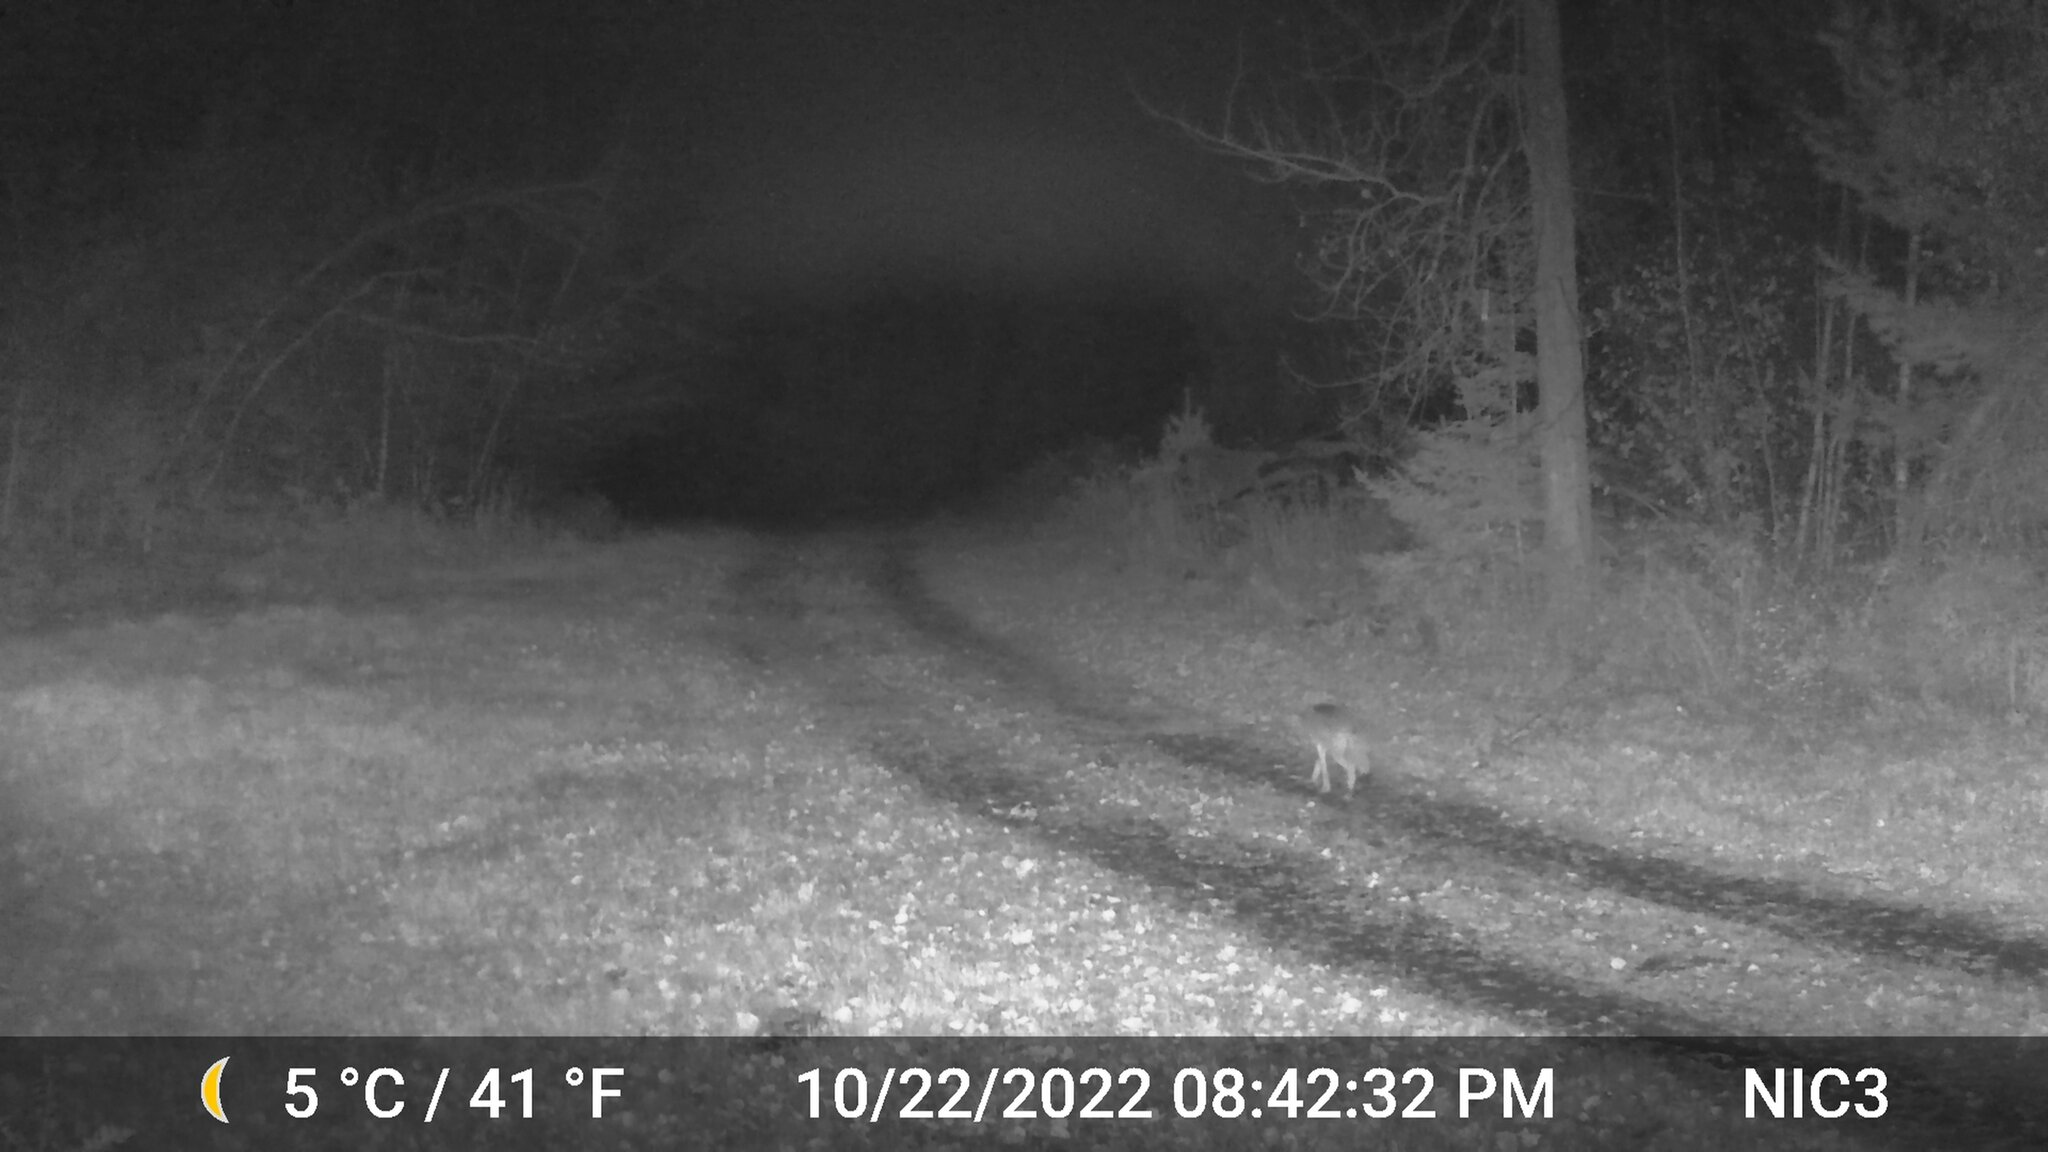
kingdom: Animalia
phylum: Chordata
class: Mammalia
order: Carnivora
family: Canidae
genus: Canis
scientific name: Canis latrans
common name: Coyote
